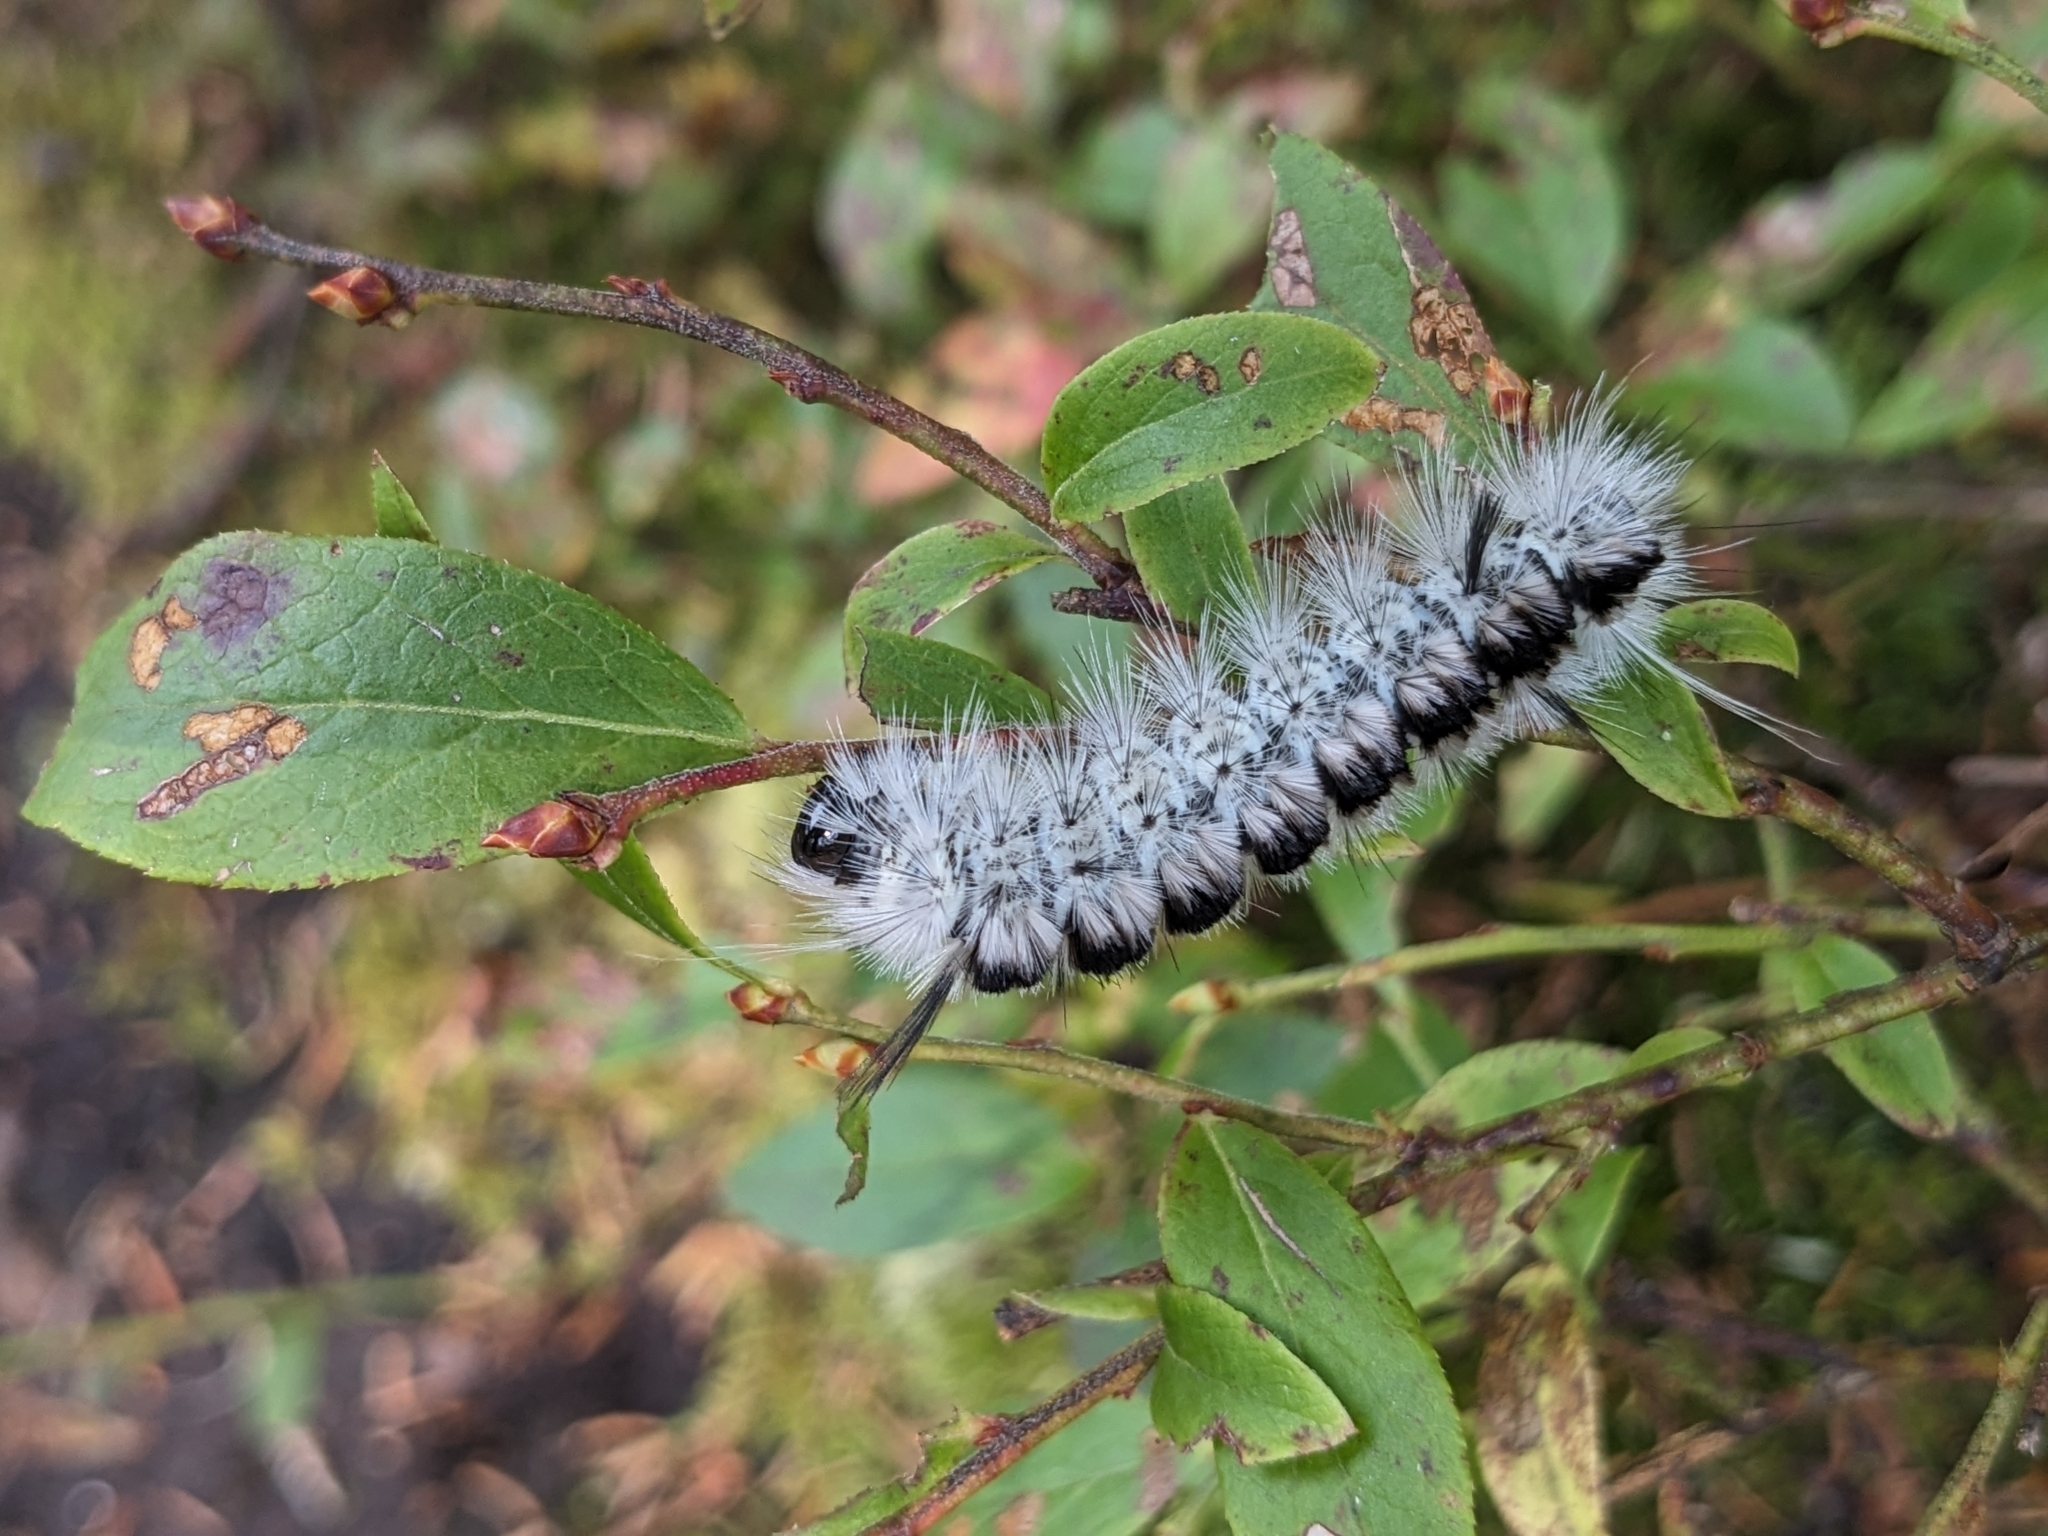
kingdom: Animalia
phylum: Arthropoda
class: Insecta
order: Lepidoptera
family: Erebidae
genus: Lophocampa
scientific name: Lophocampa caryae
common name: Hickory tussock moth
